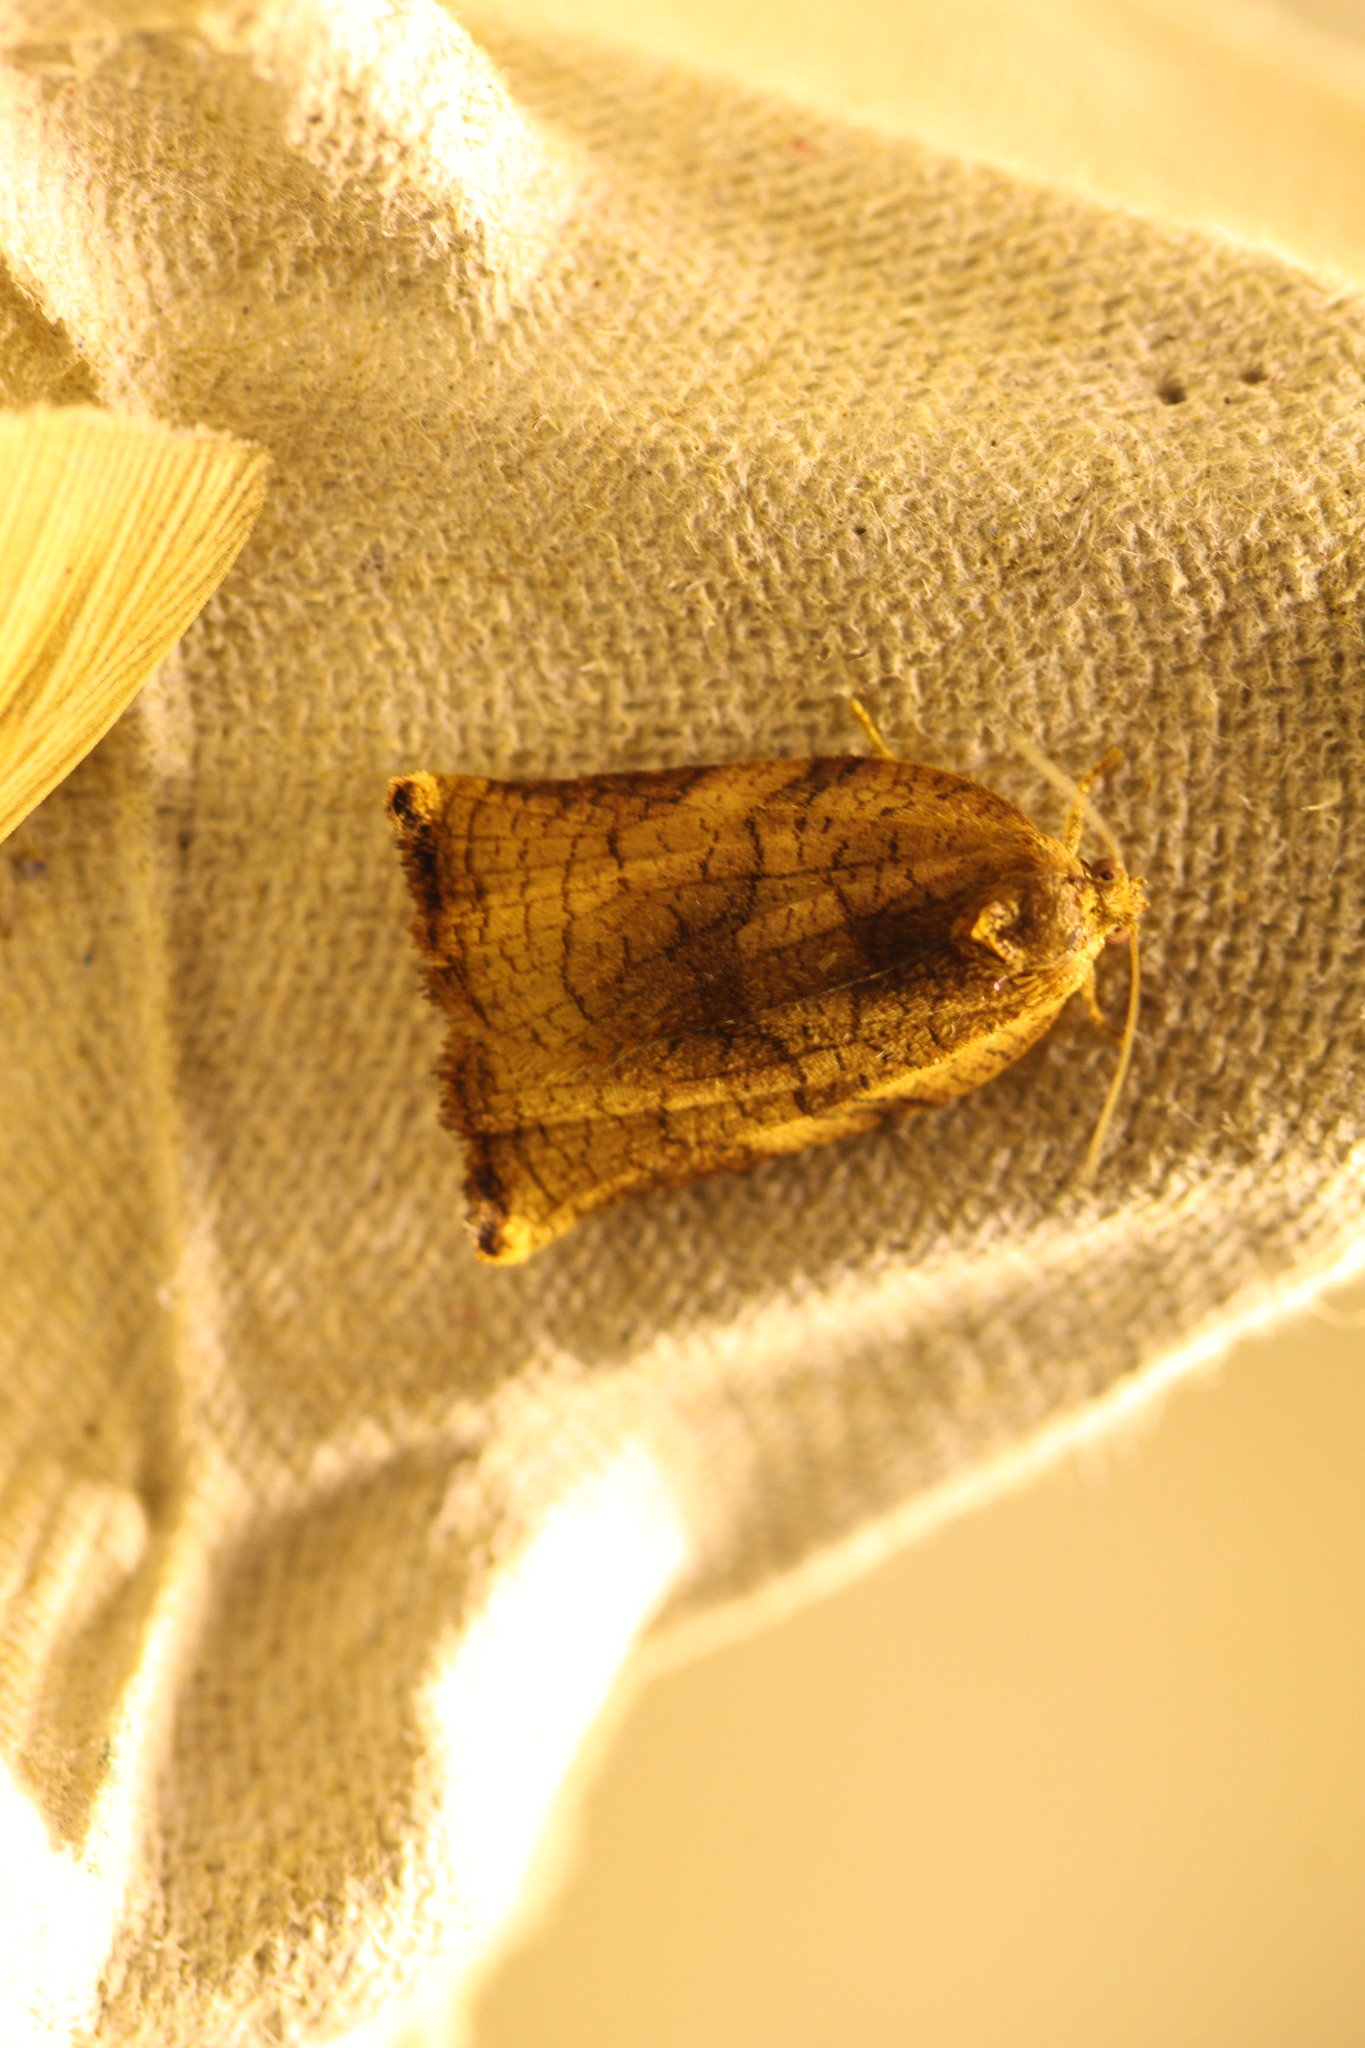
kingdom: Animalia
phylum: Arthropoda
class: Insecta
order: Lepidoptera
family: Tortricidae
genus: Archips
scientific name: Archips podana
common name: Large fruit-tree tortrix
